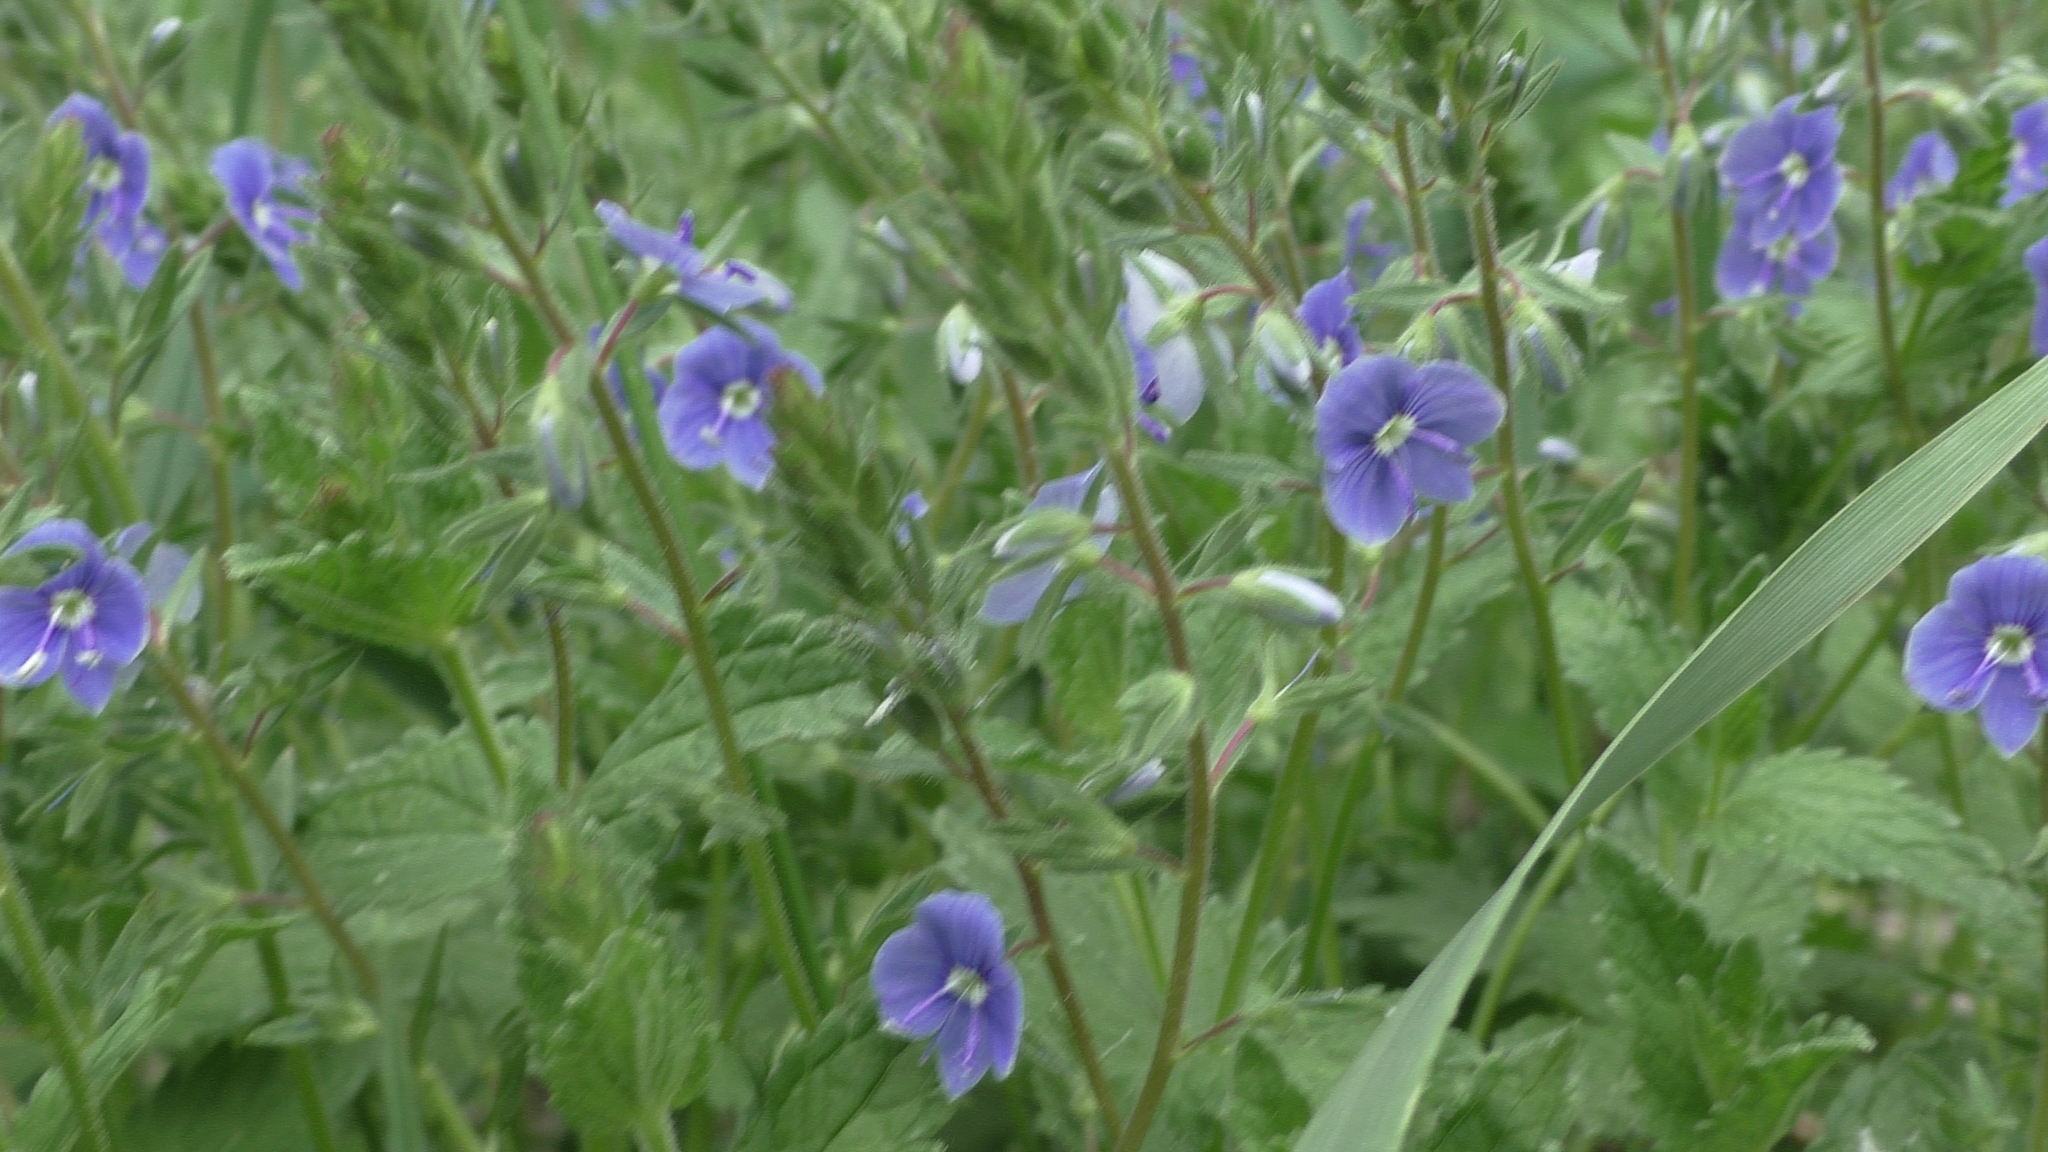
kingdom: Plantae
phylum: Tracheophyta
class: Magnoliopsida
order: Lamiales
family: Plantaginaceae
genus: Veronica
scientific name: Veronica chamaedrys
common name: Germander speedwell
